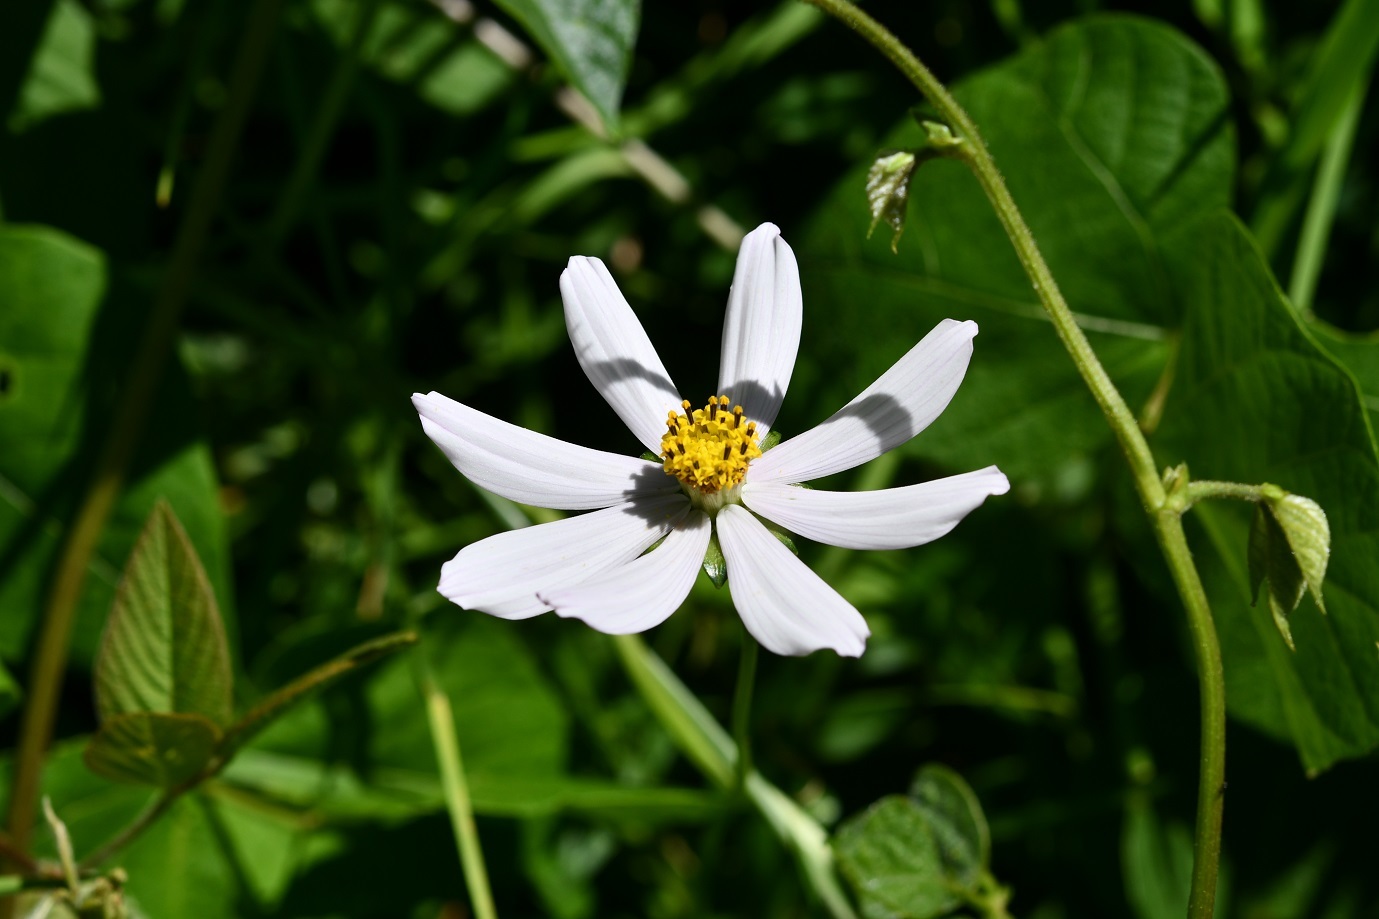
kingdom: Plantae
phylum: Tracheophyta
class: Magnoliopsida
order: Asterales
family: Asteraceae
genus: Cosmos
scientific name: Cosmos diversifolius
